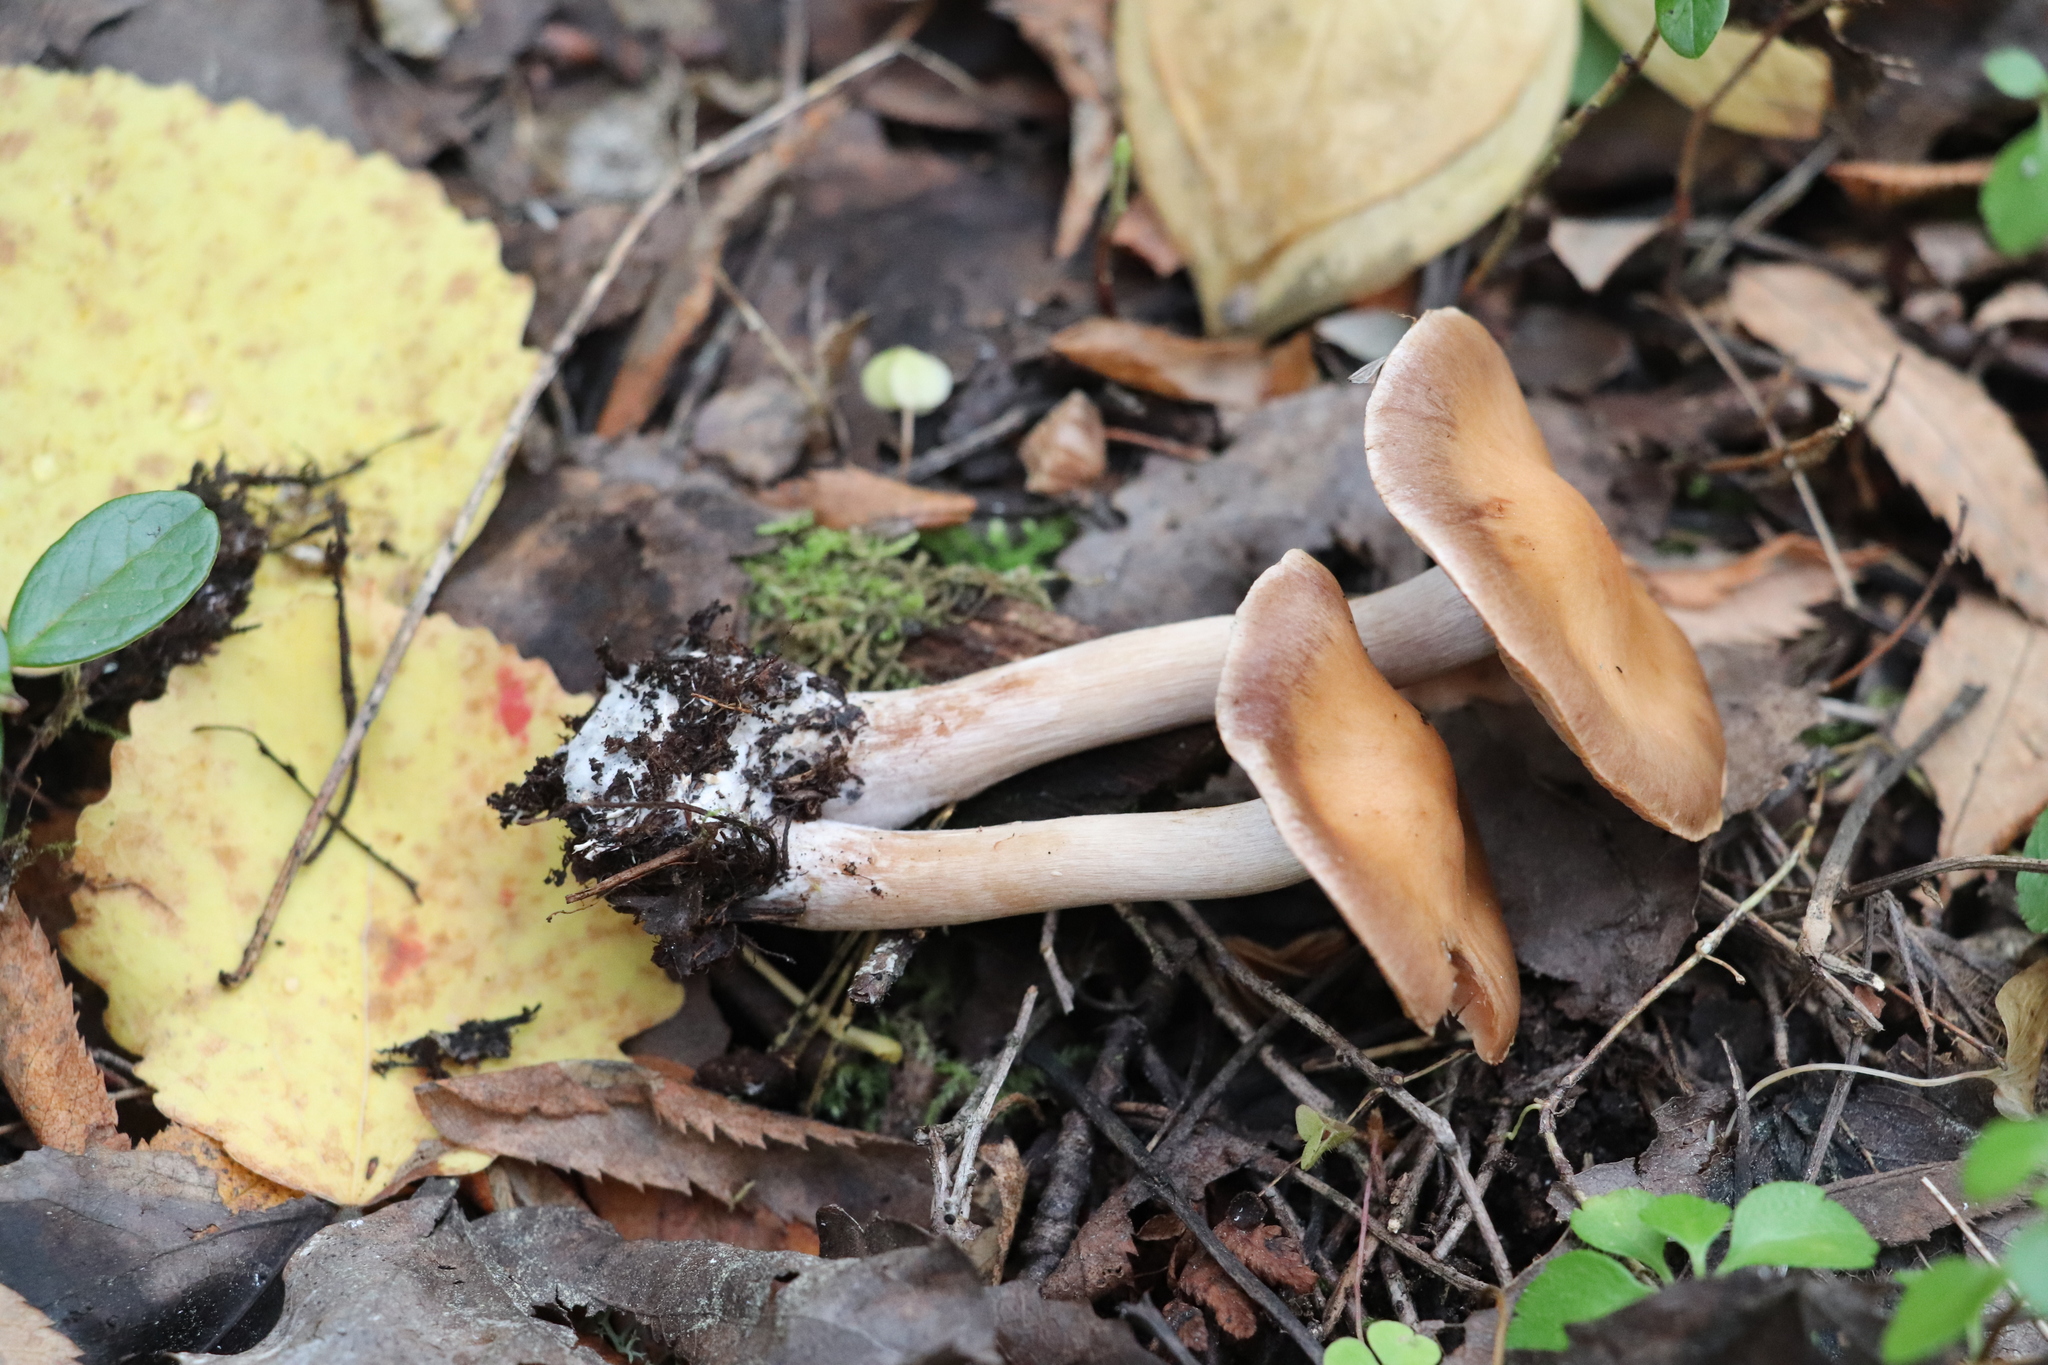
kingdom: Fungi
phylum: Basidiomycota
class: Agaricomycetes
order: Agaricales
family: Physalacriaceae
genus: Armillaria
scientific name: Armillaria cepistipes
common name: Mullet honey fungus
